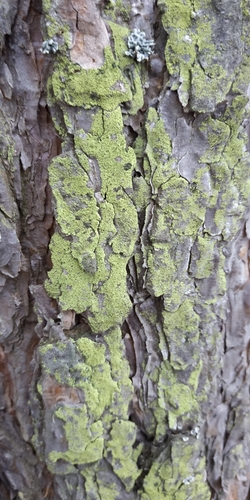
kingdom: Fungi
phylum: Ascomycota
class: Lecanoromycetes
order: Teloschistales
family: Teloschistaceae
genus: Xanthoria
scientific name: Xanthoria
